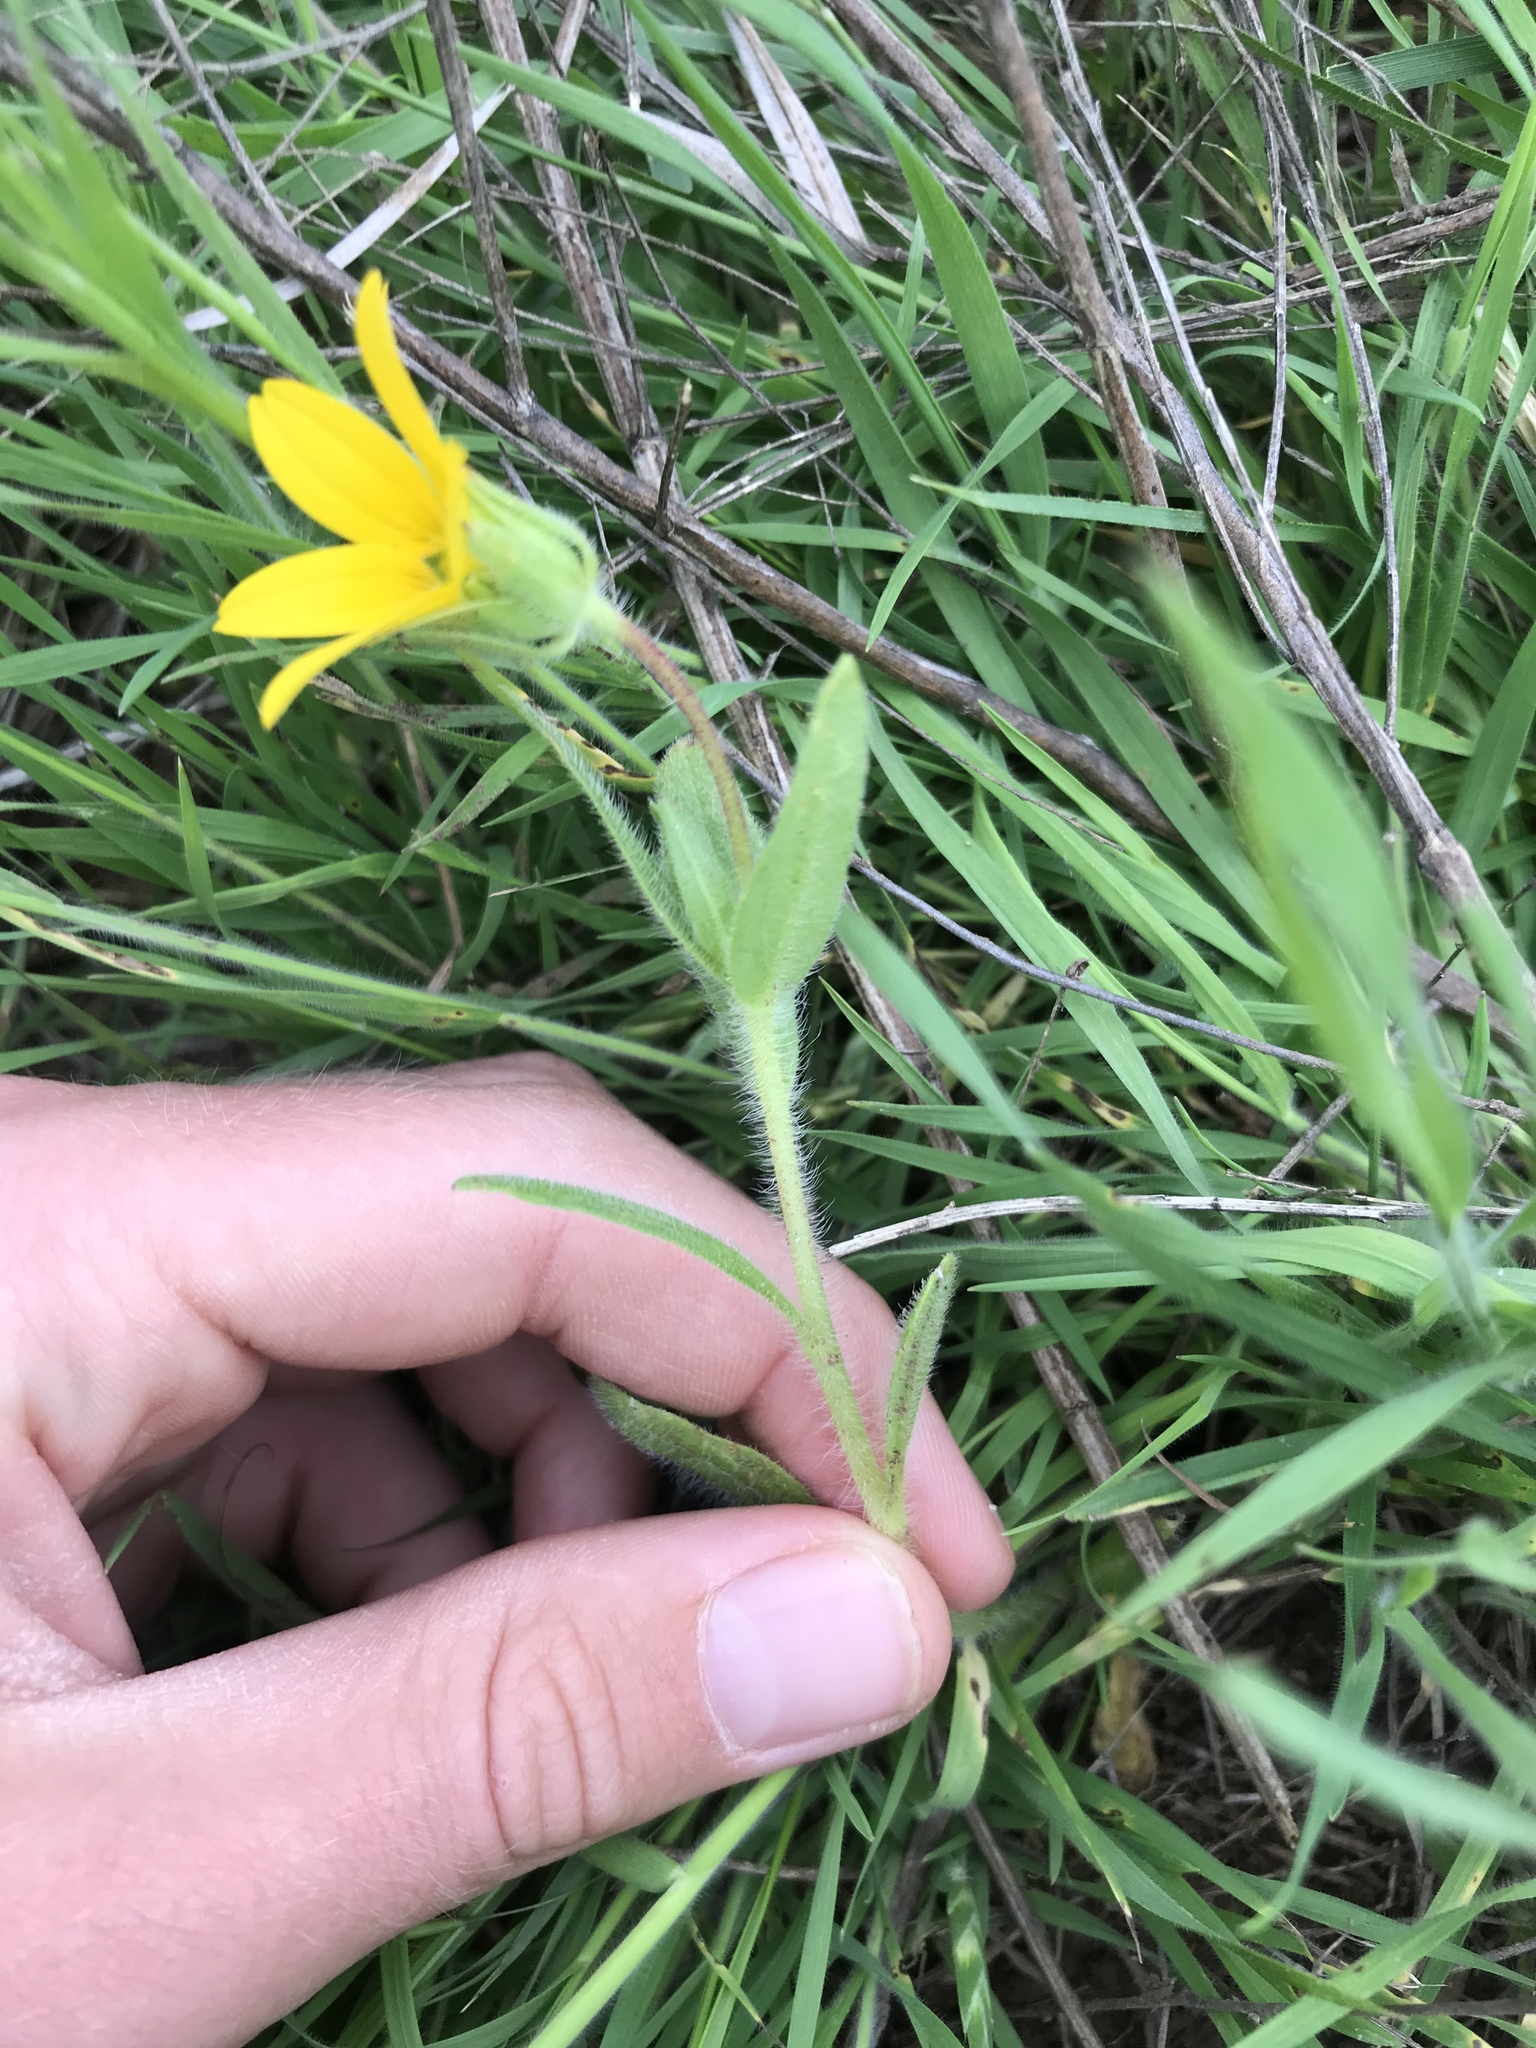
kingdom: Plantae
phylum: Tracheophyta
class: Magnoliopsida
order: Asterales
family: Asteraceae
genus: Lindheimera
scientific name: Lindheimera texana
